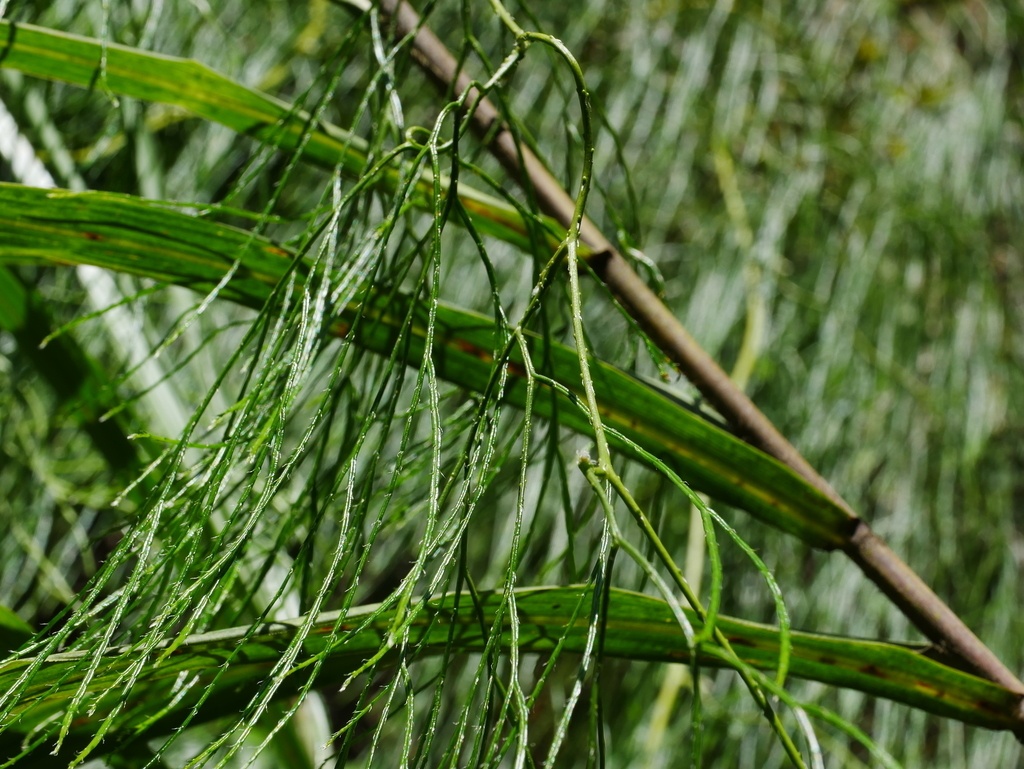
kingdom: Plantae
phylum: Tracheophyta
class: Lycopodiopsida
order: Lycopodiales
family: Lycopodiaceae
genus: Lycopodiastrum
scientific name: Lycopodiastrum casuarinoides
